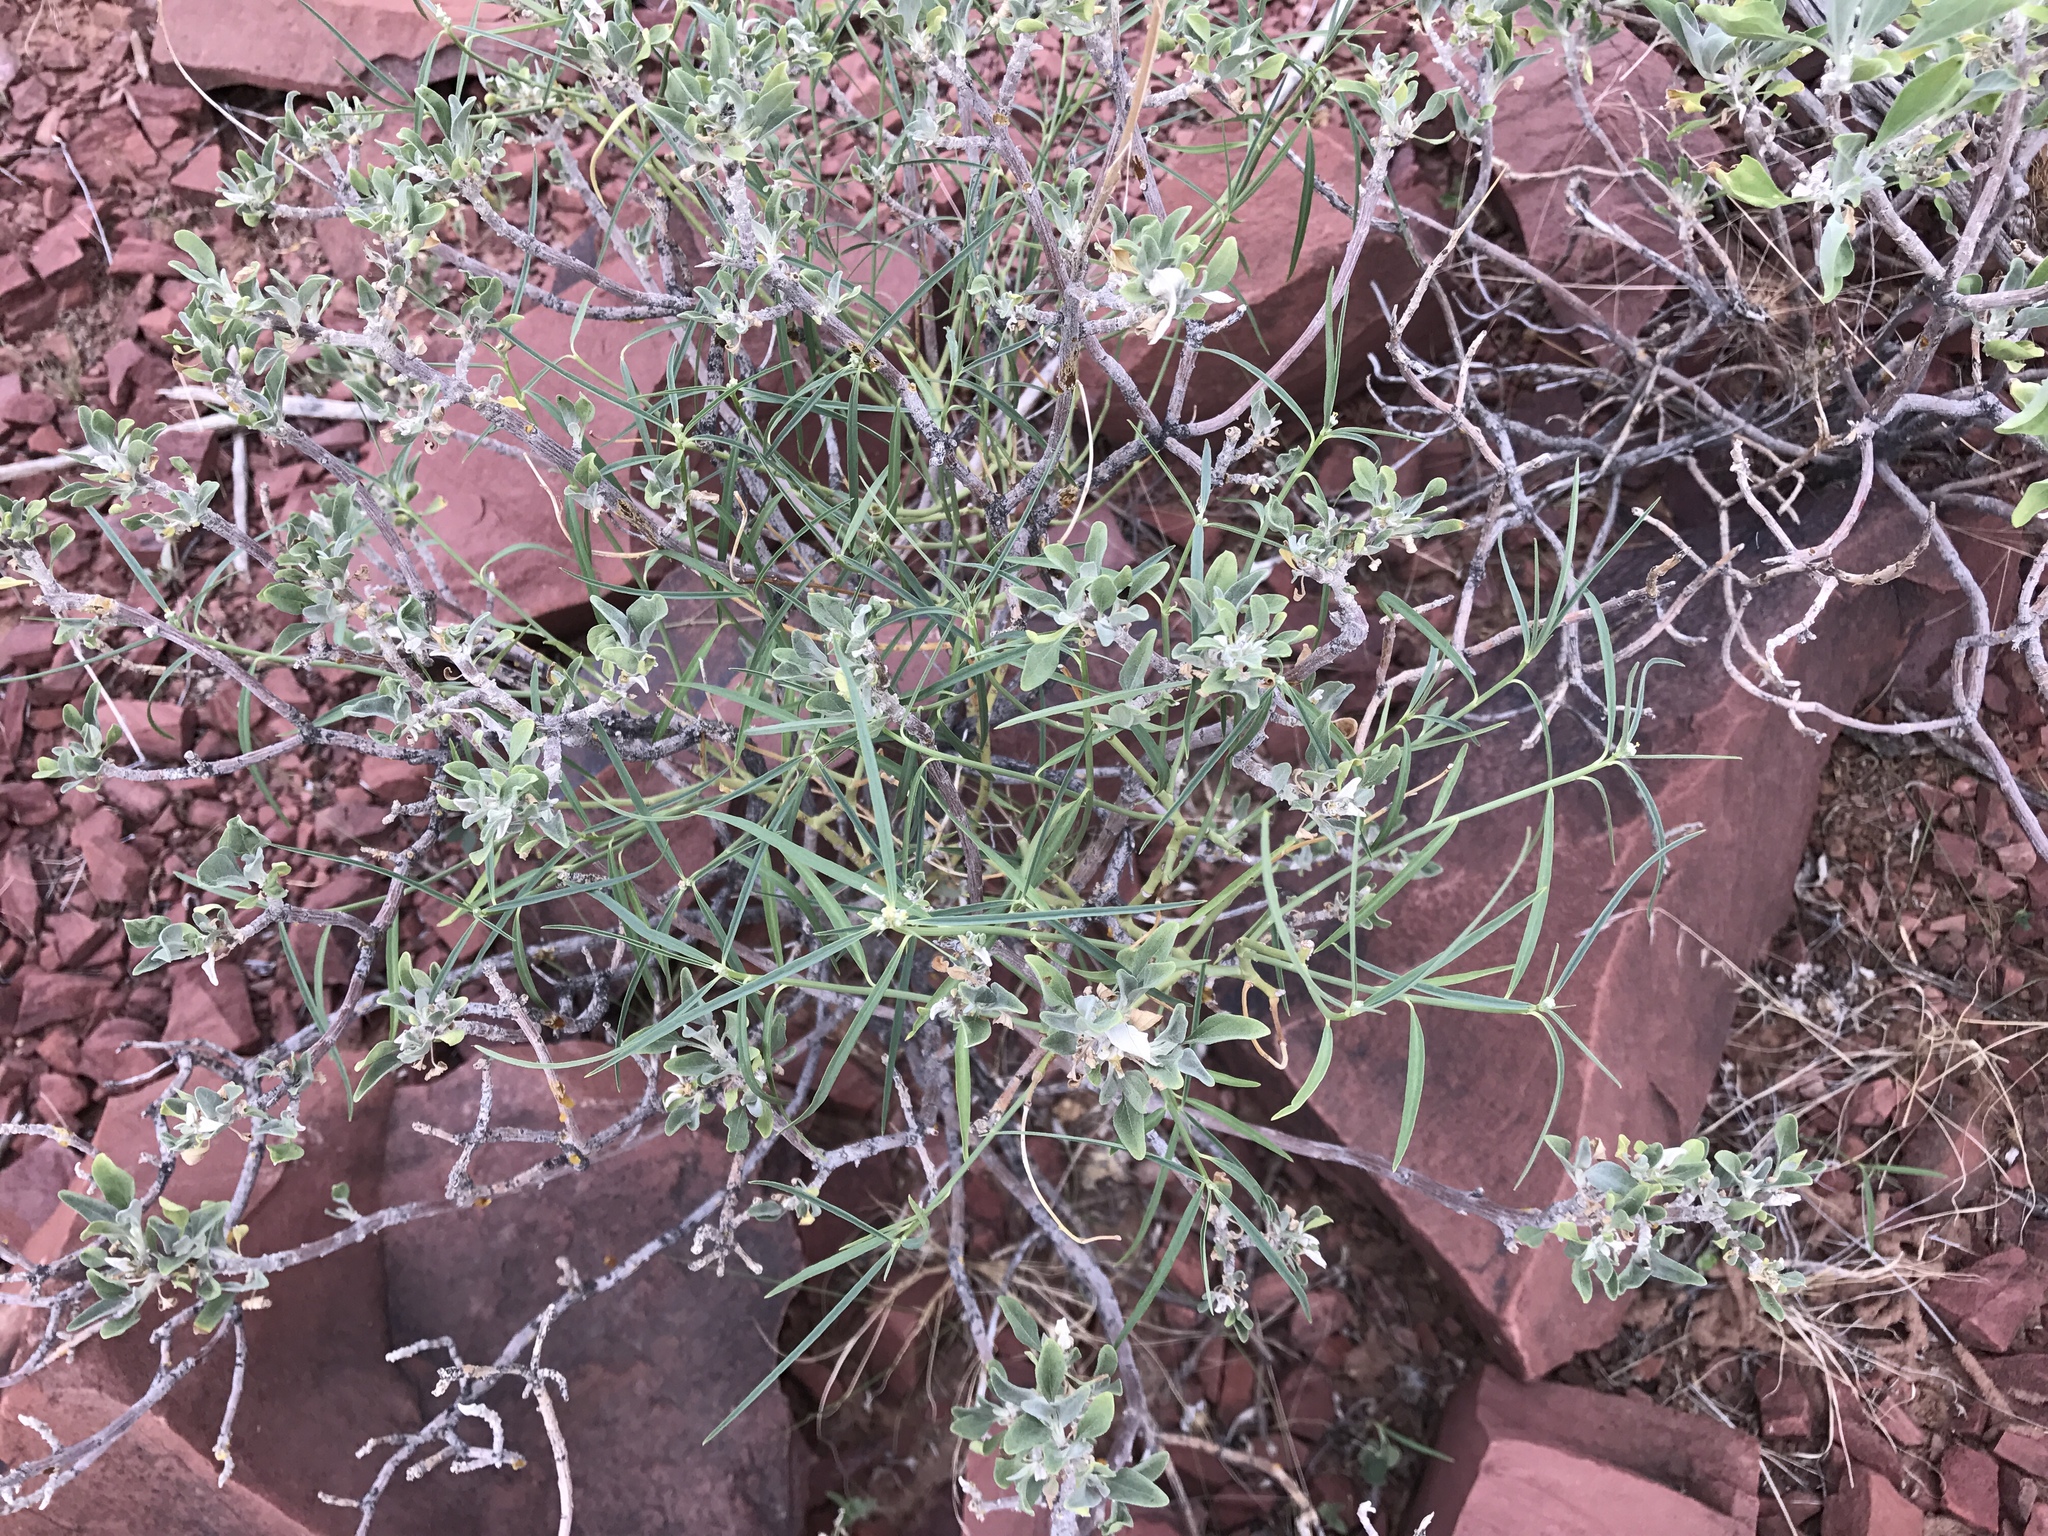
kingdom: Plantae
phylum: Tracheophyta
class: Magnoliopsida
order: Malpighiales
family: Euphorbiaceae
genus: Euphorbia
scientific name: Euphorbia eriantha
